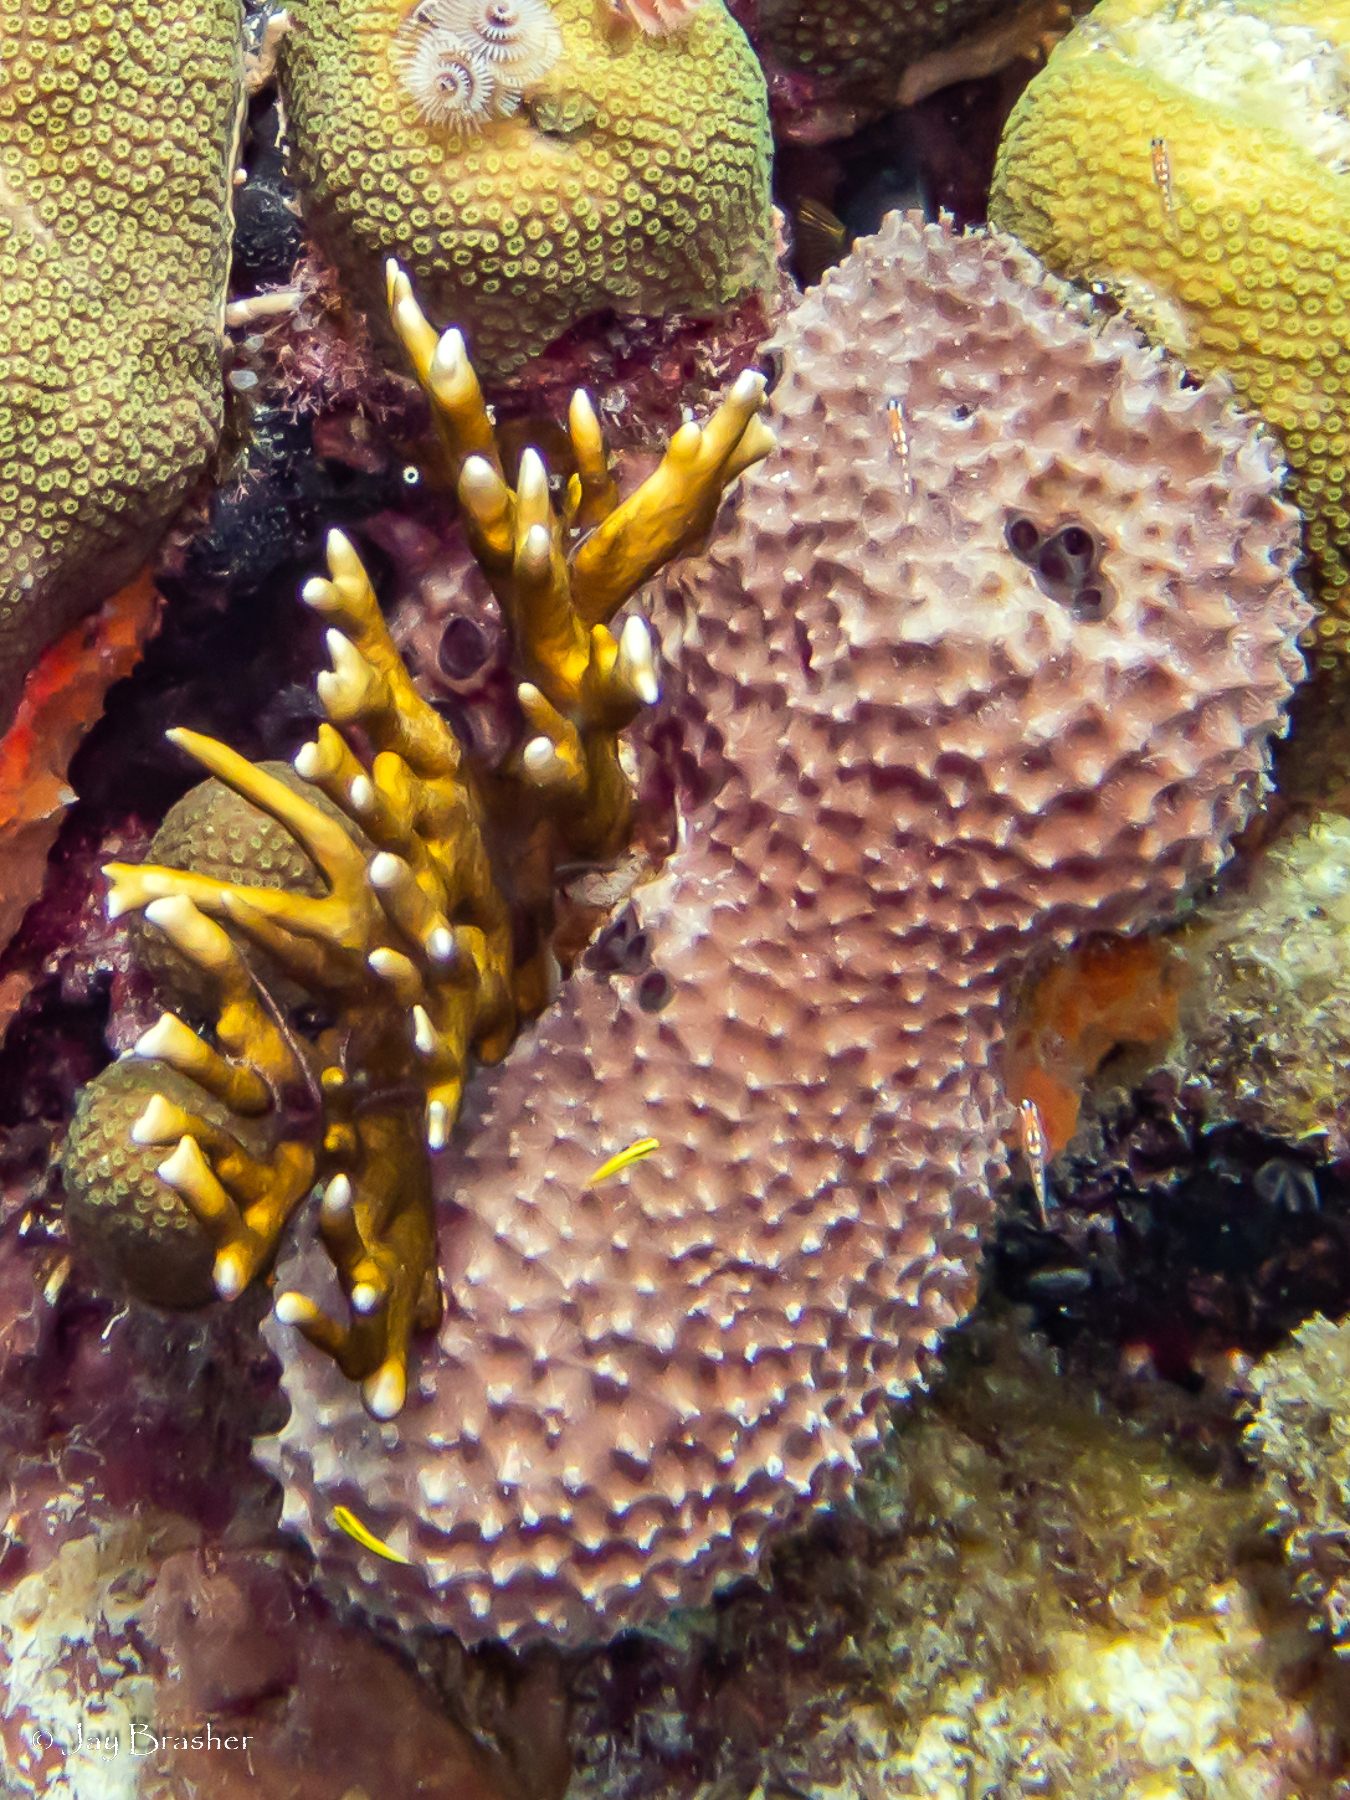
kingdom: Animalia
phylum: Porifera
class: Demospongiae
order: Dictyoceratida
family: Irciniidae
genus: Ircinia
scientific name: Ircinia felix
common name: Stinker sponge
